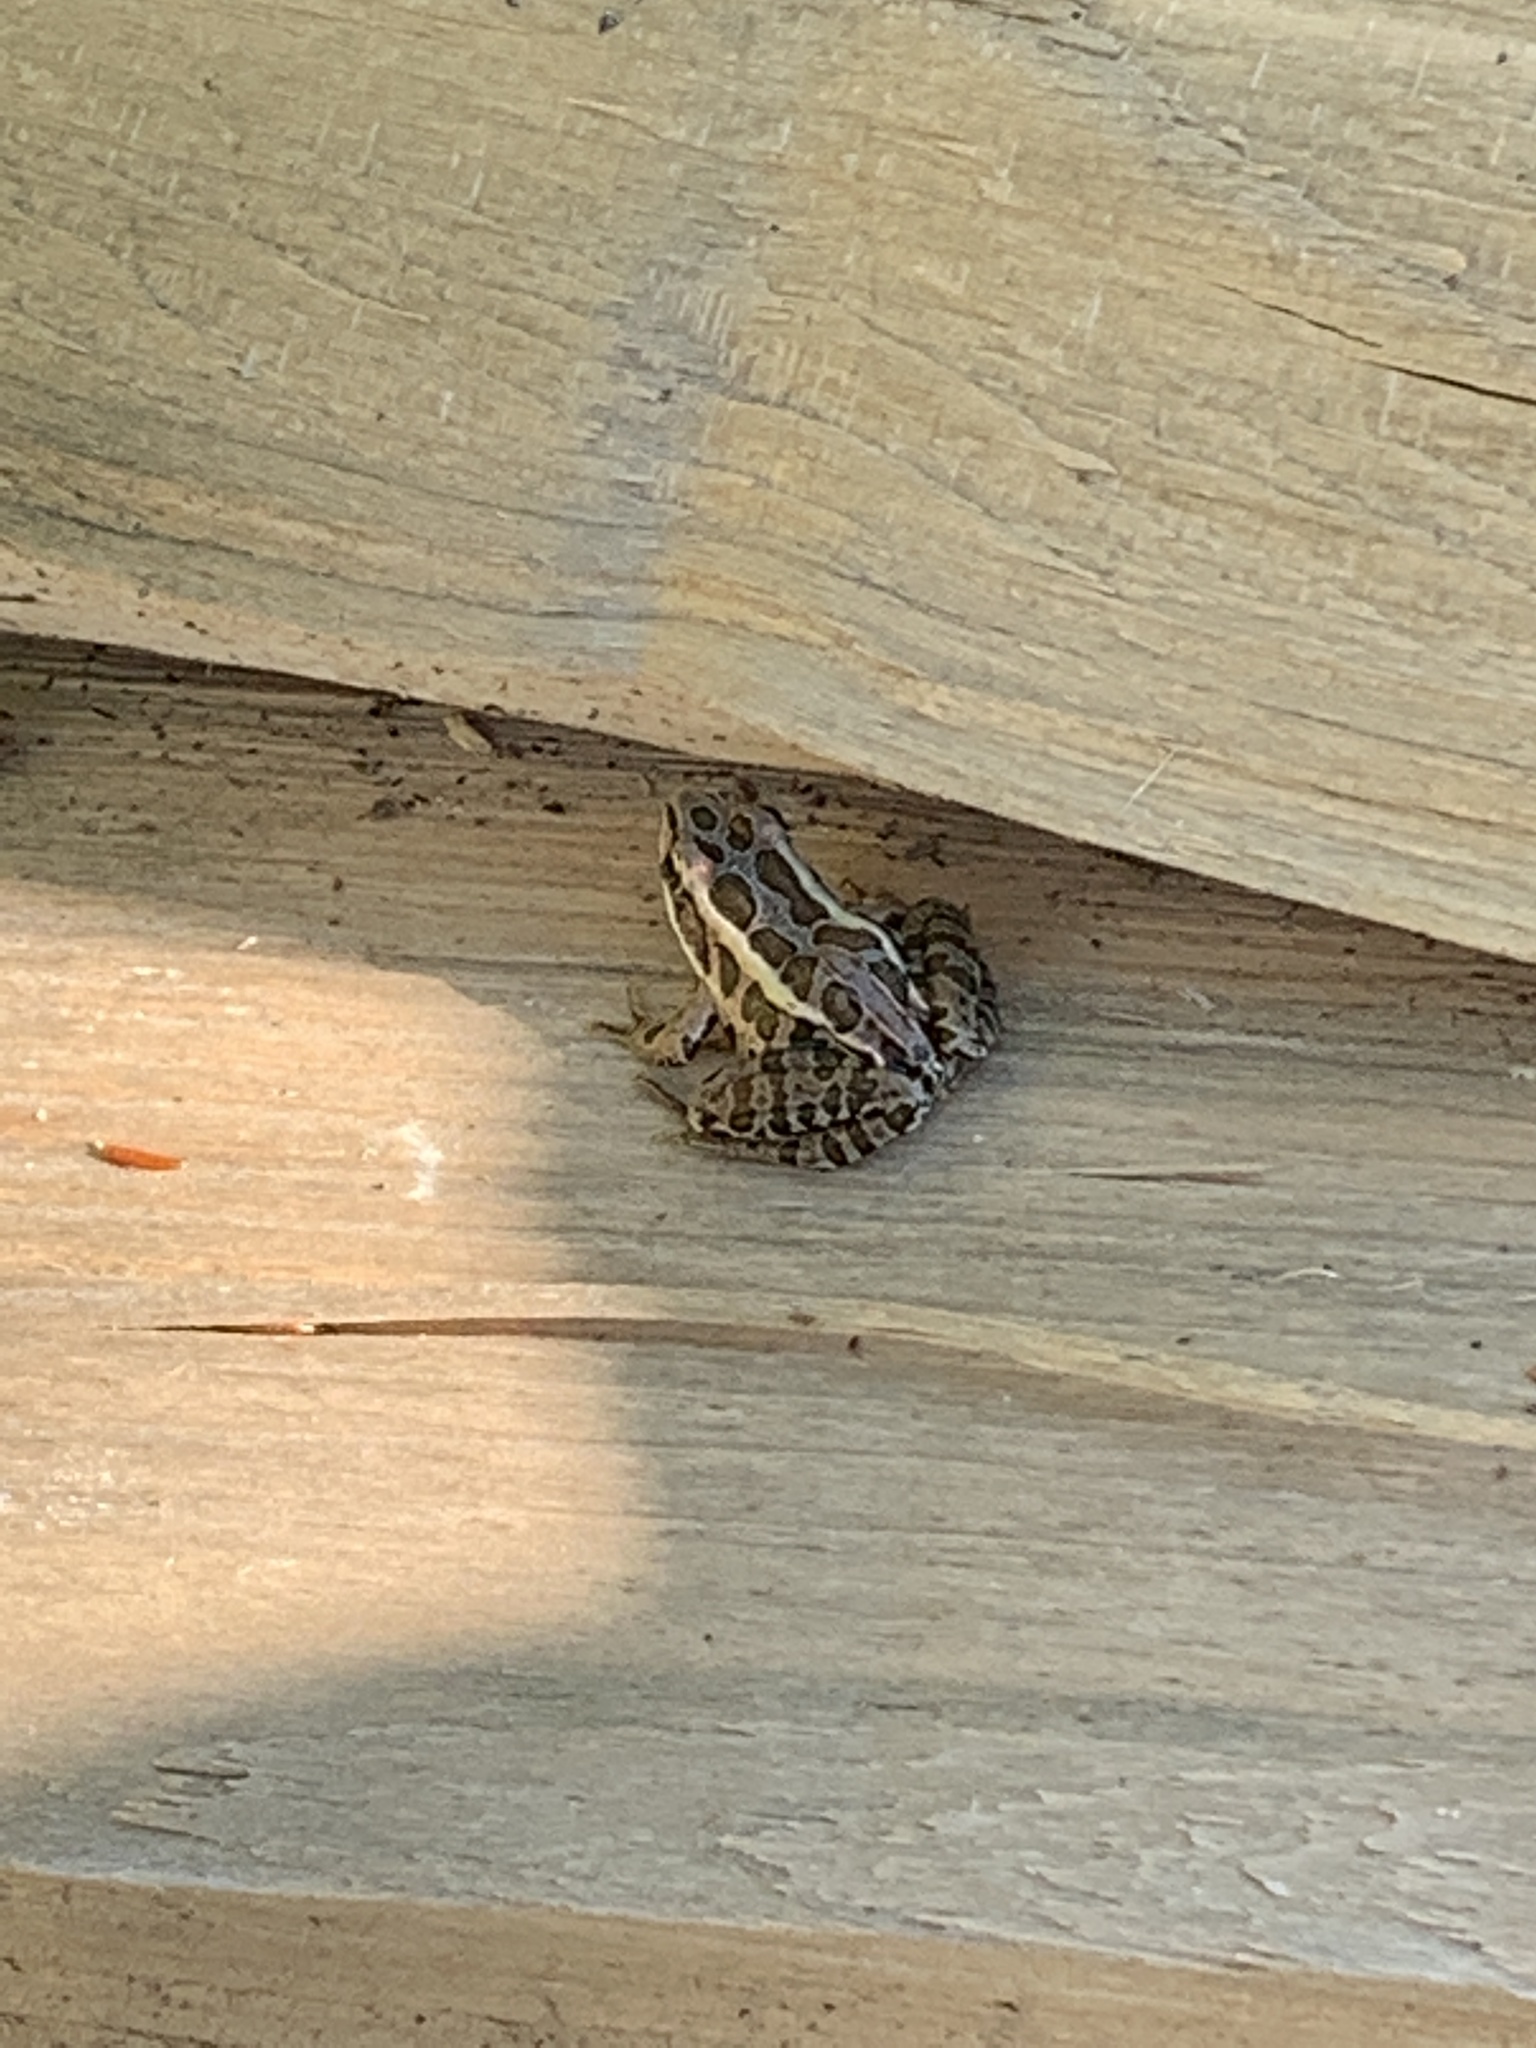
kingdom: Animalia
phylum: Chordata
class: Amphibia
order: Anura
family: Ranidae
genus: Lithobates
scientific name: Lithobates palustris
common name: Pickerel frog
